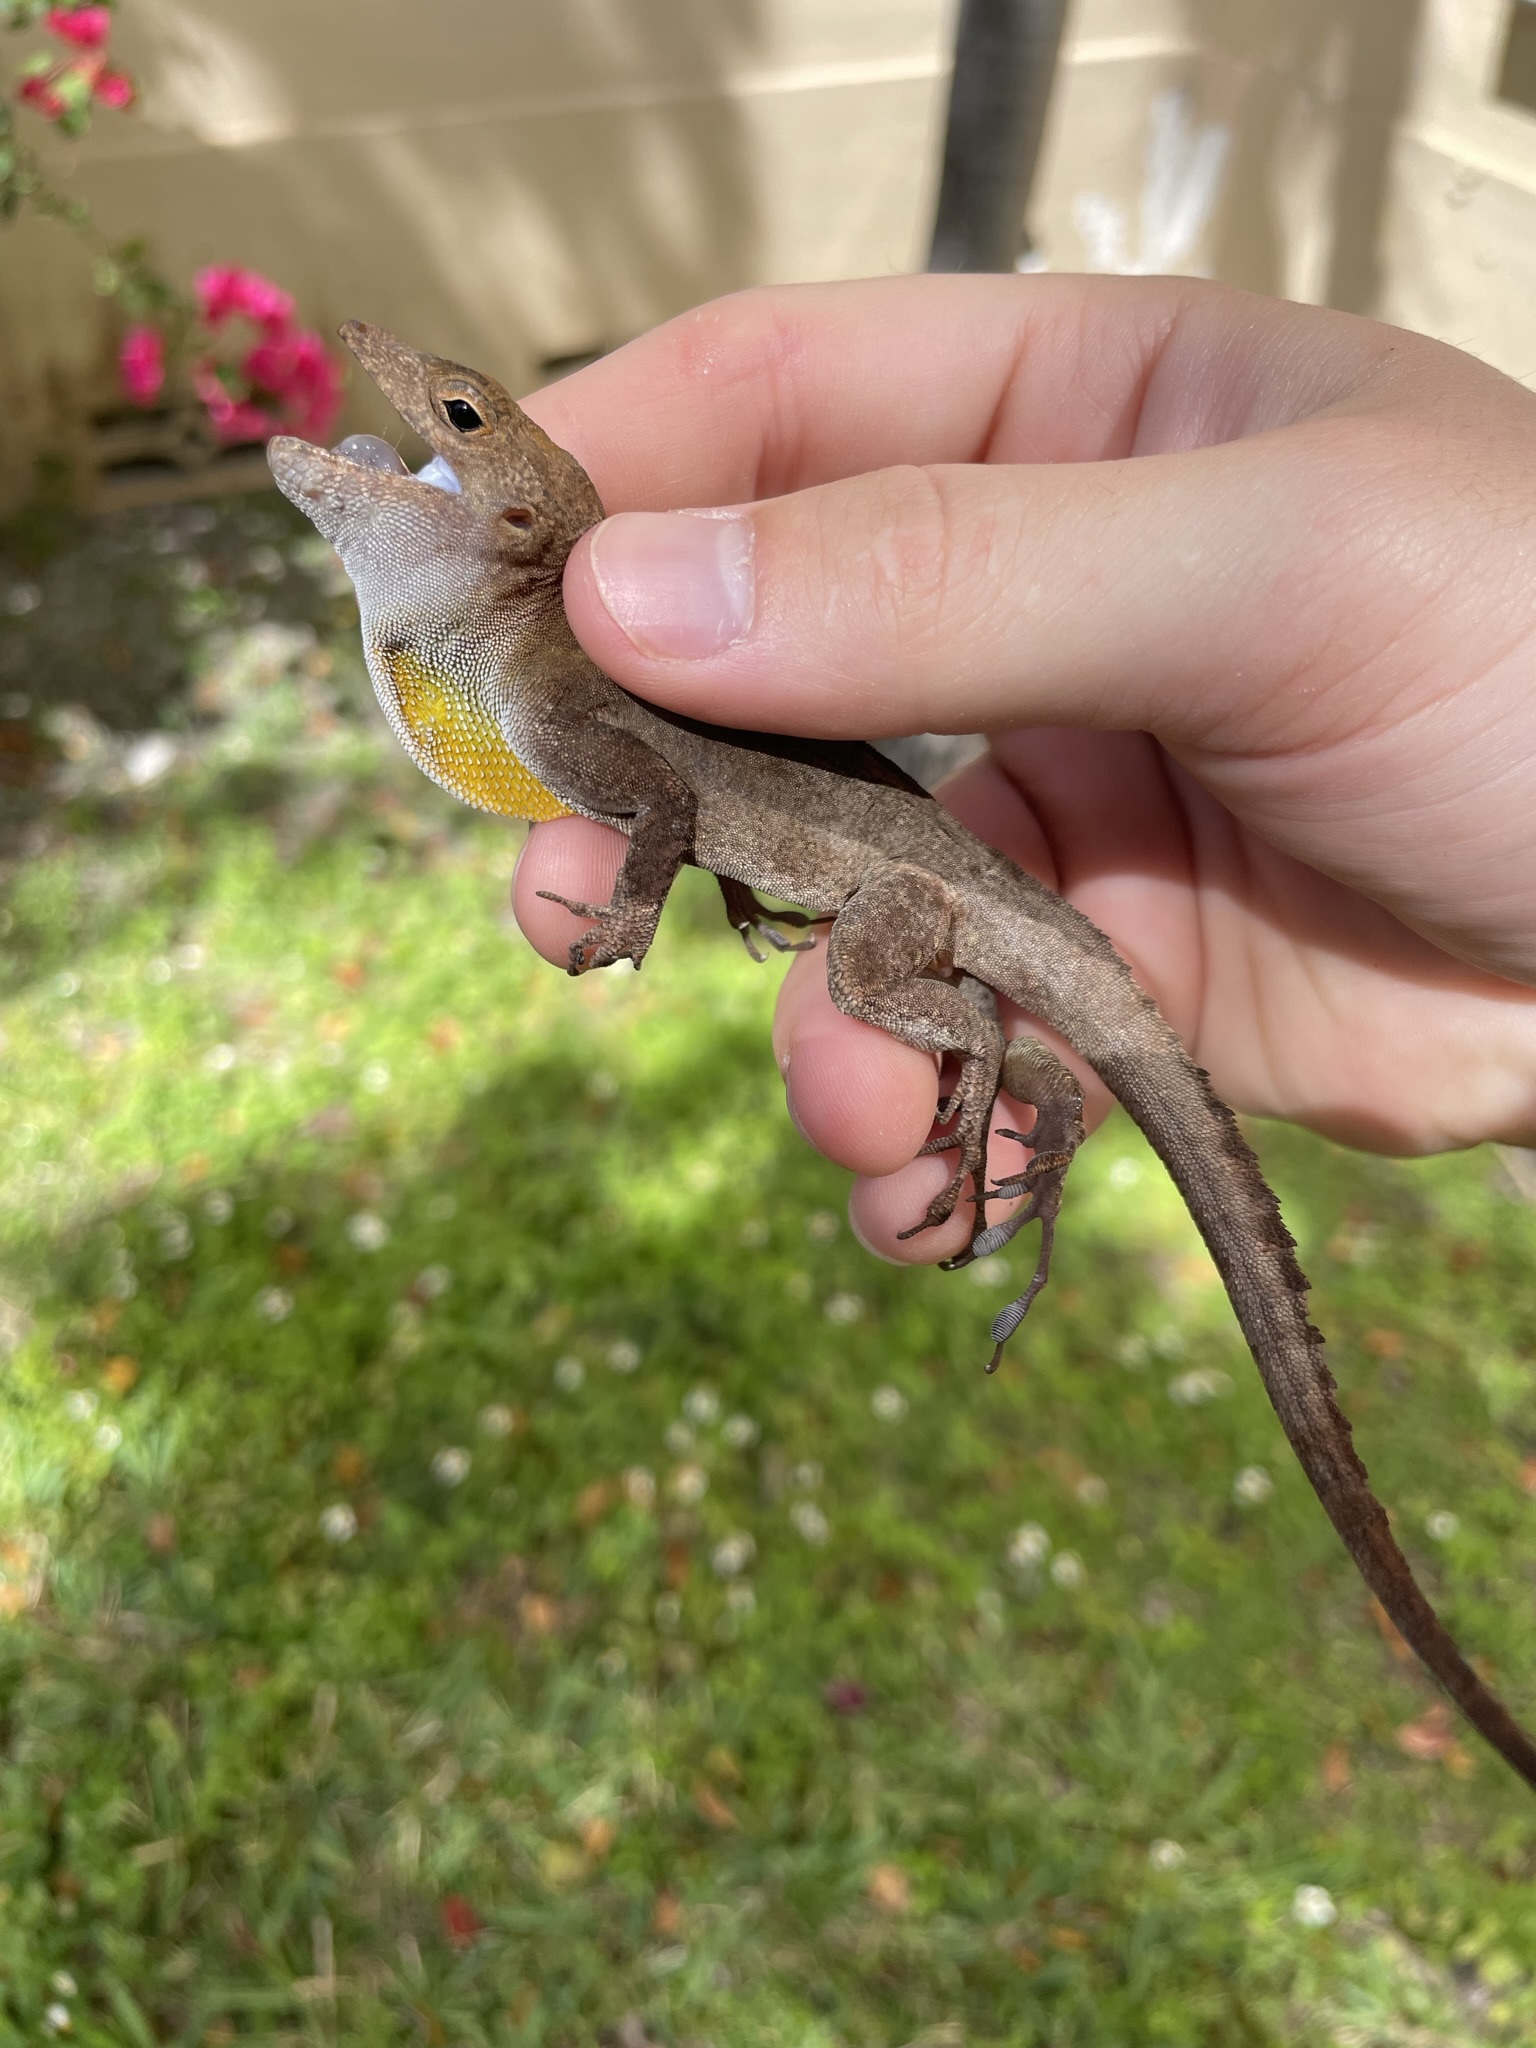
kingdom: Animalia
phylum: Chordata
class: Squamata
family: Dactyloidae
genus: Anolis
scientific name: Anolis cristatellus
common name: Crested anole
